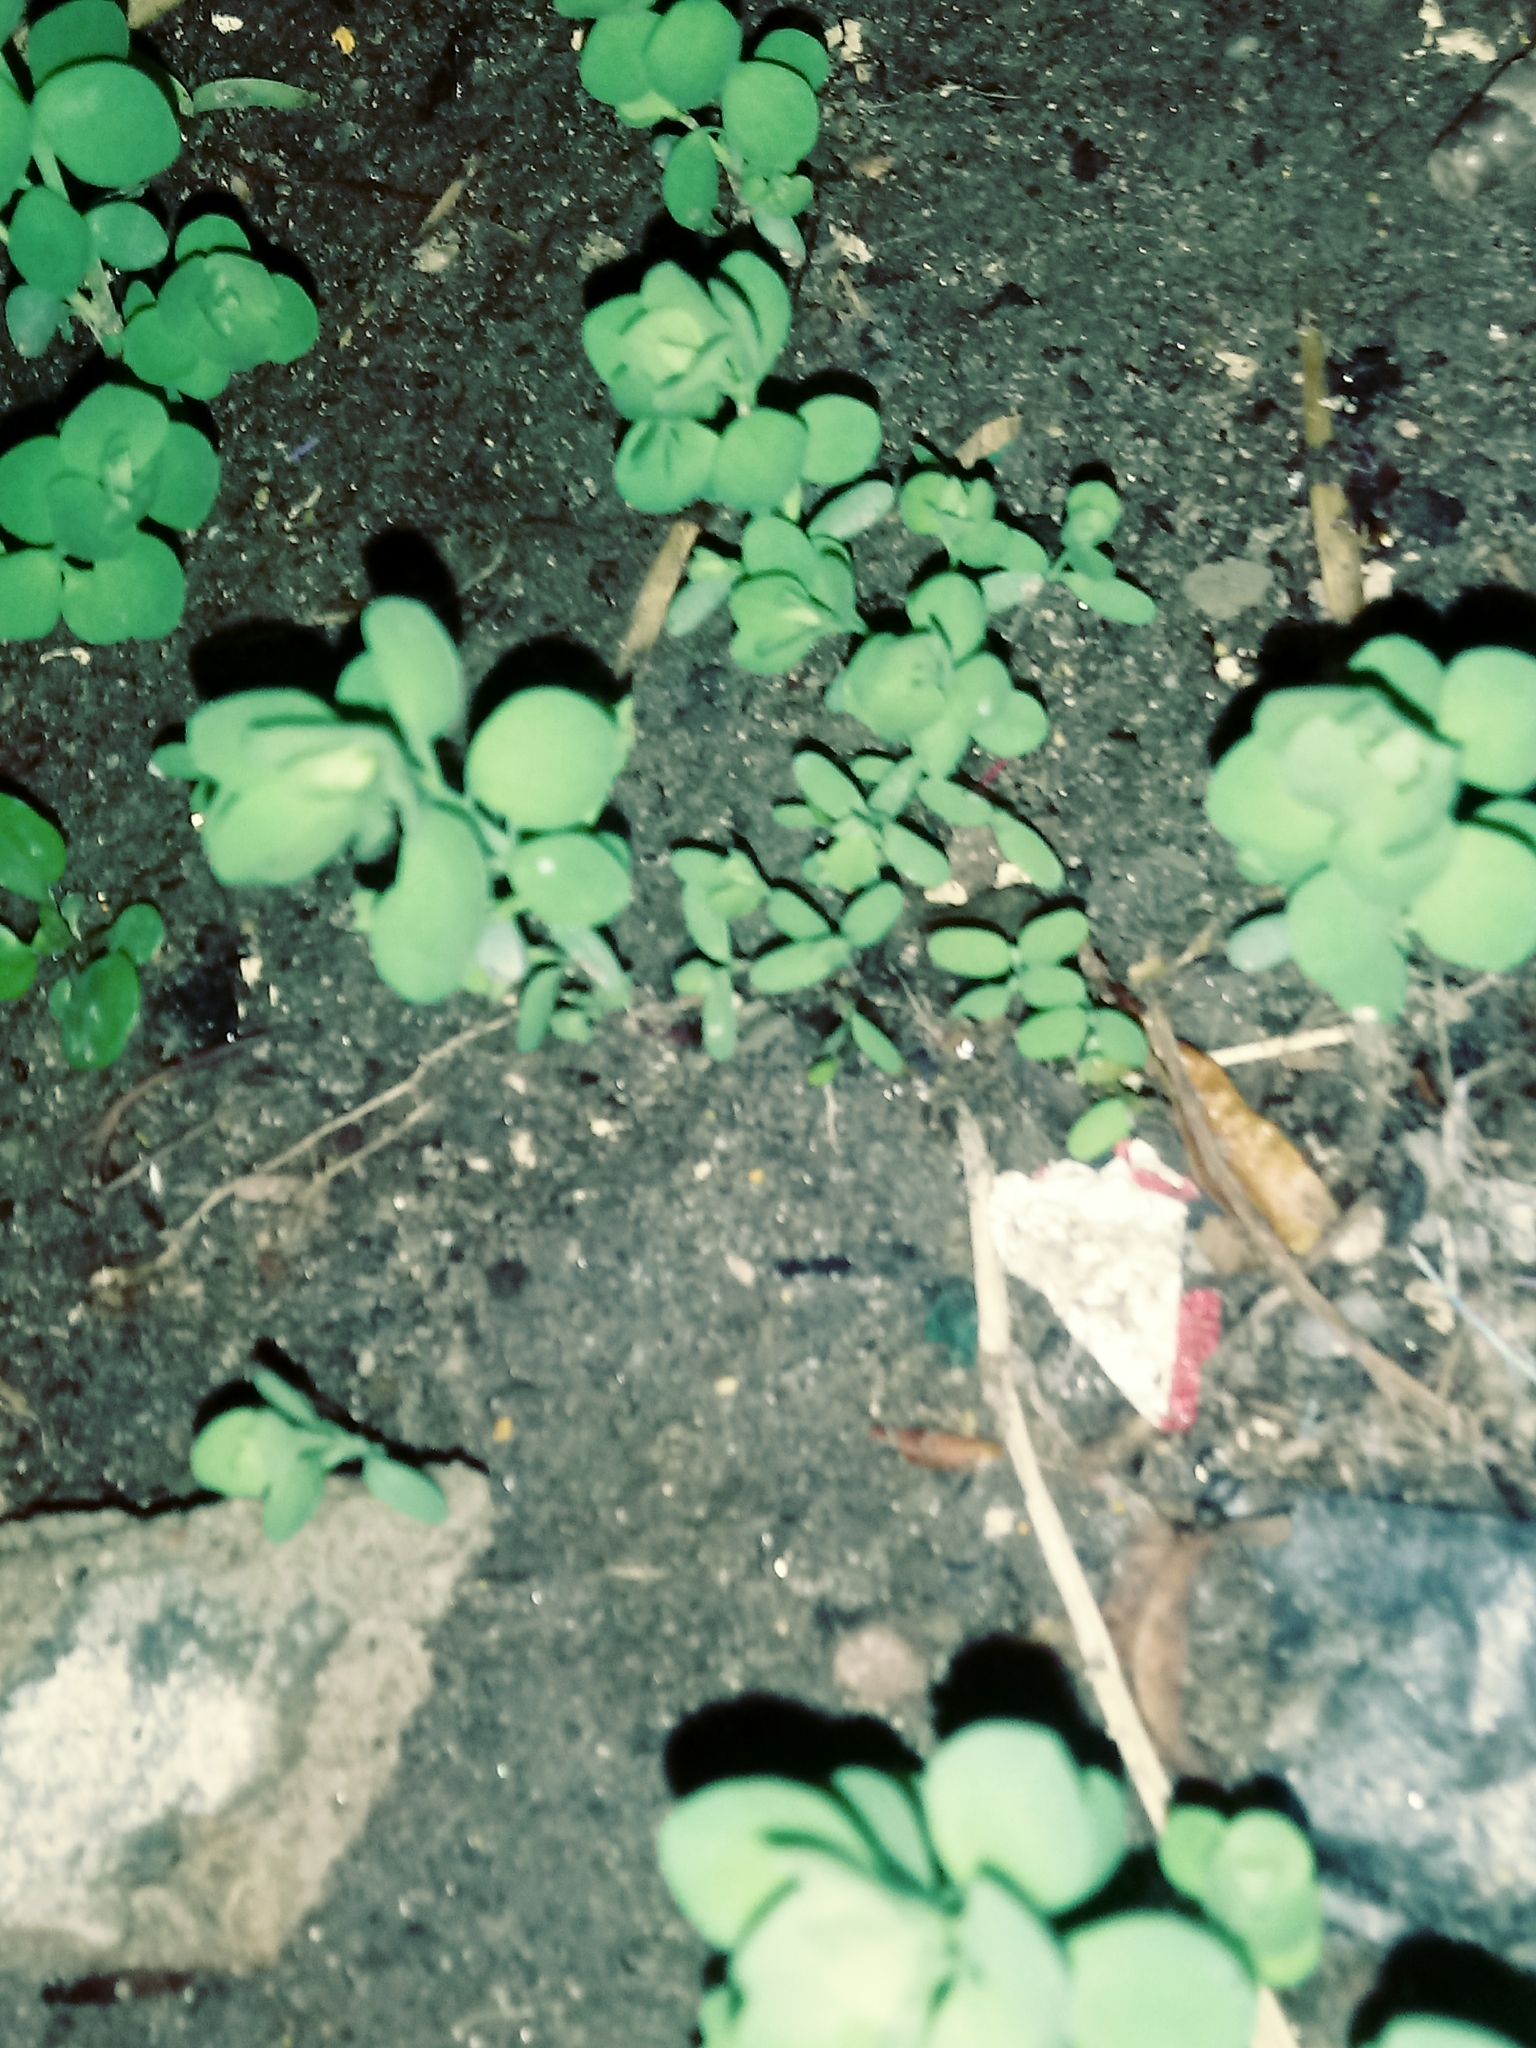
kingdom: Plantae
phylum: Tracheophyta
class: Magnoliopsida
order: Malpighiales
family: Euphorbiaceae
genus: Euphorbia
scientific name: Euphorbia peplus
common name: Petty spurge
